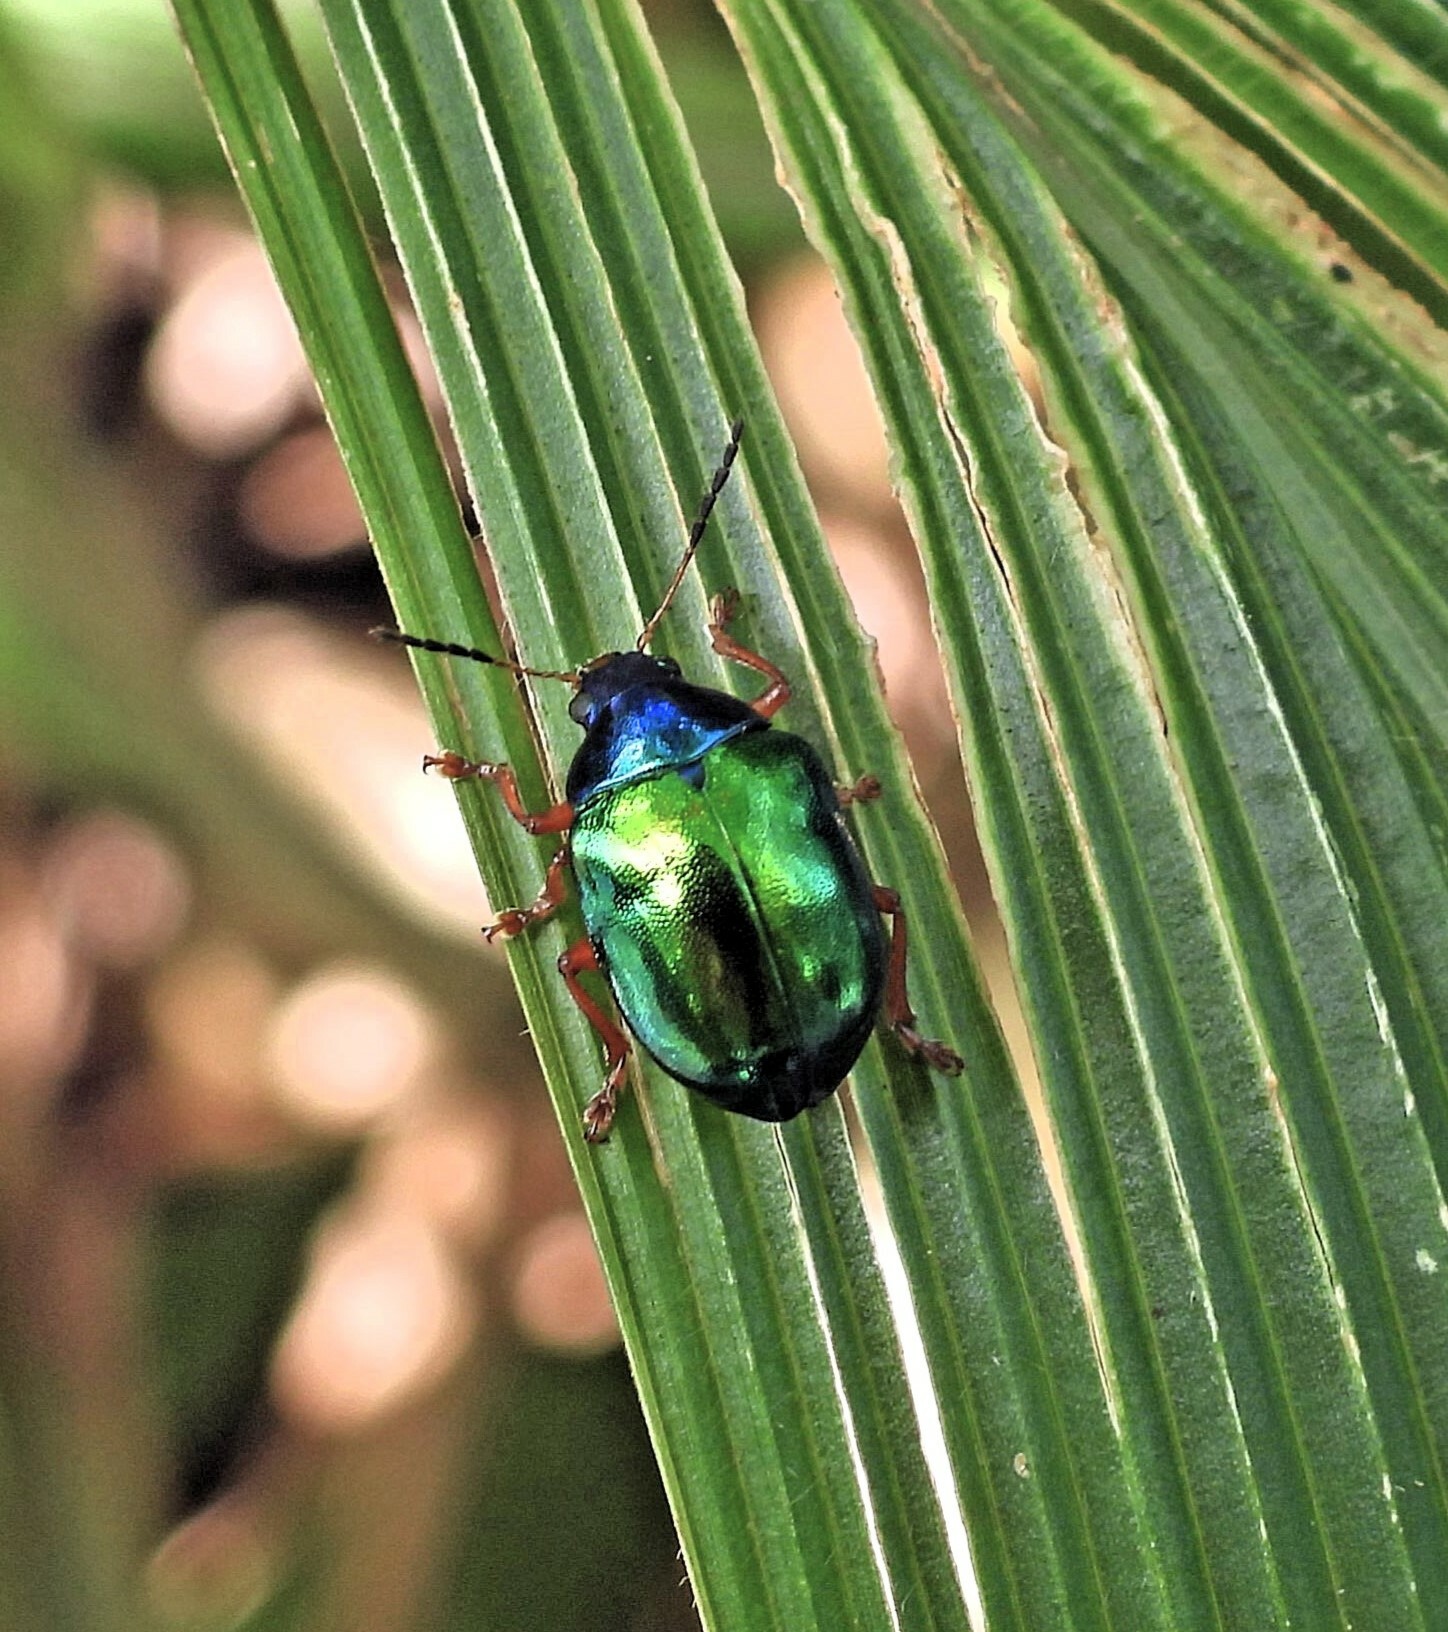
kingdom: Animalia
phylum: Arthropoda
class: Insecta
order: Coleoptera
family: Chrysomelidae
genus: Iphimeis
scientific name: Iphimeis
